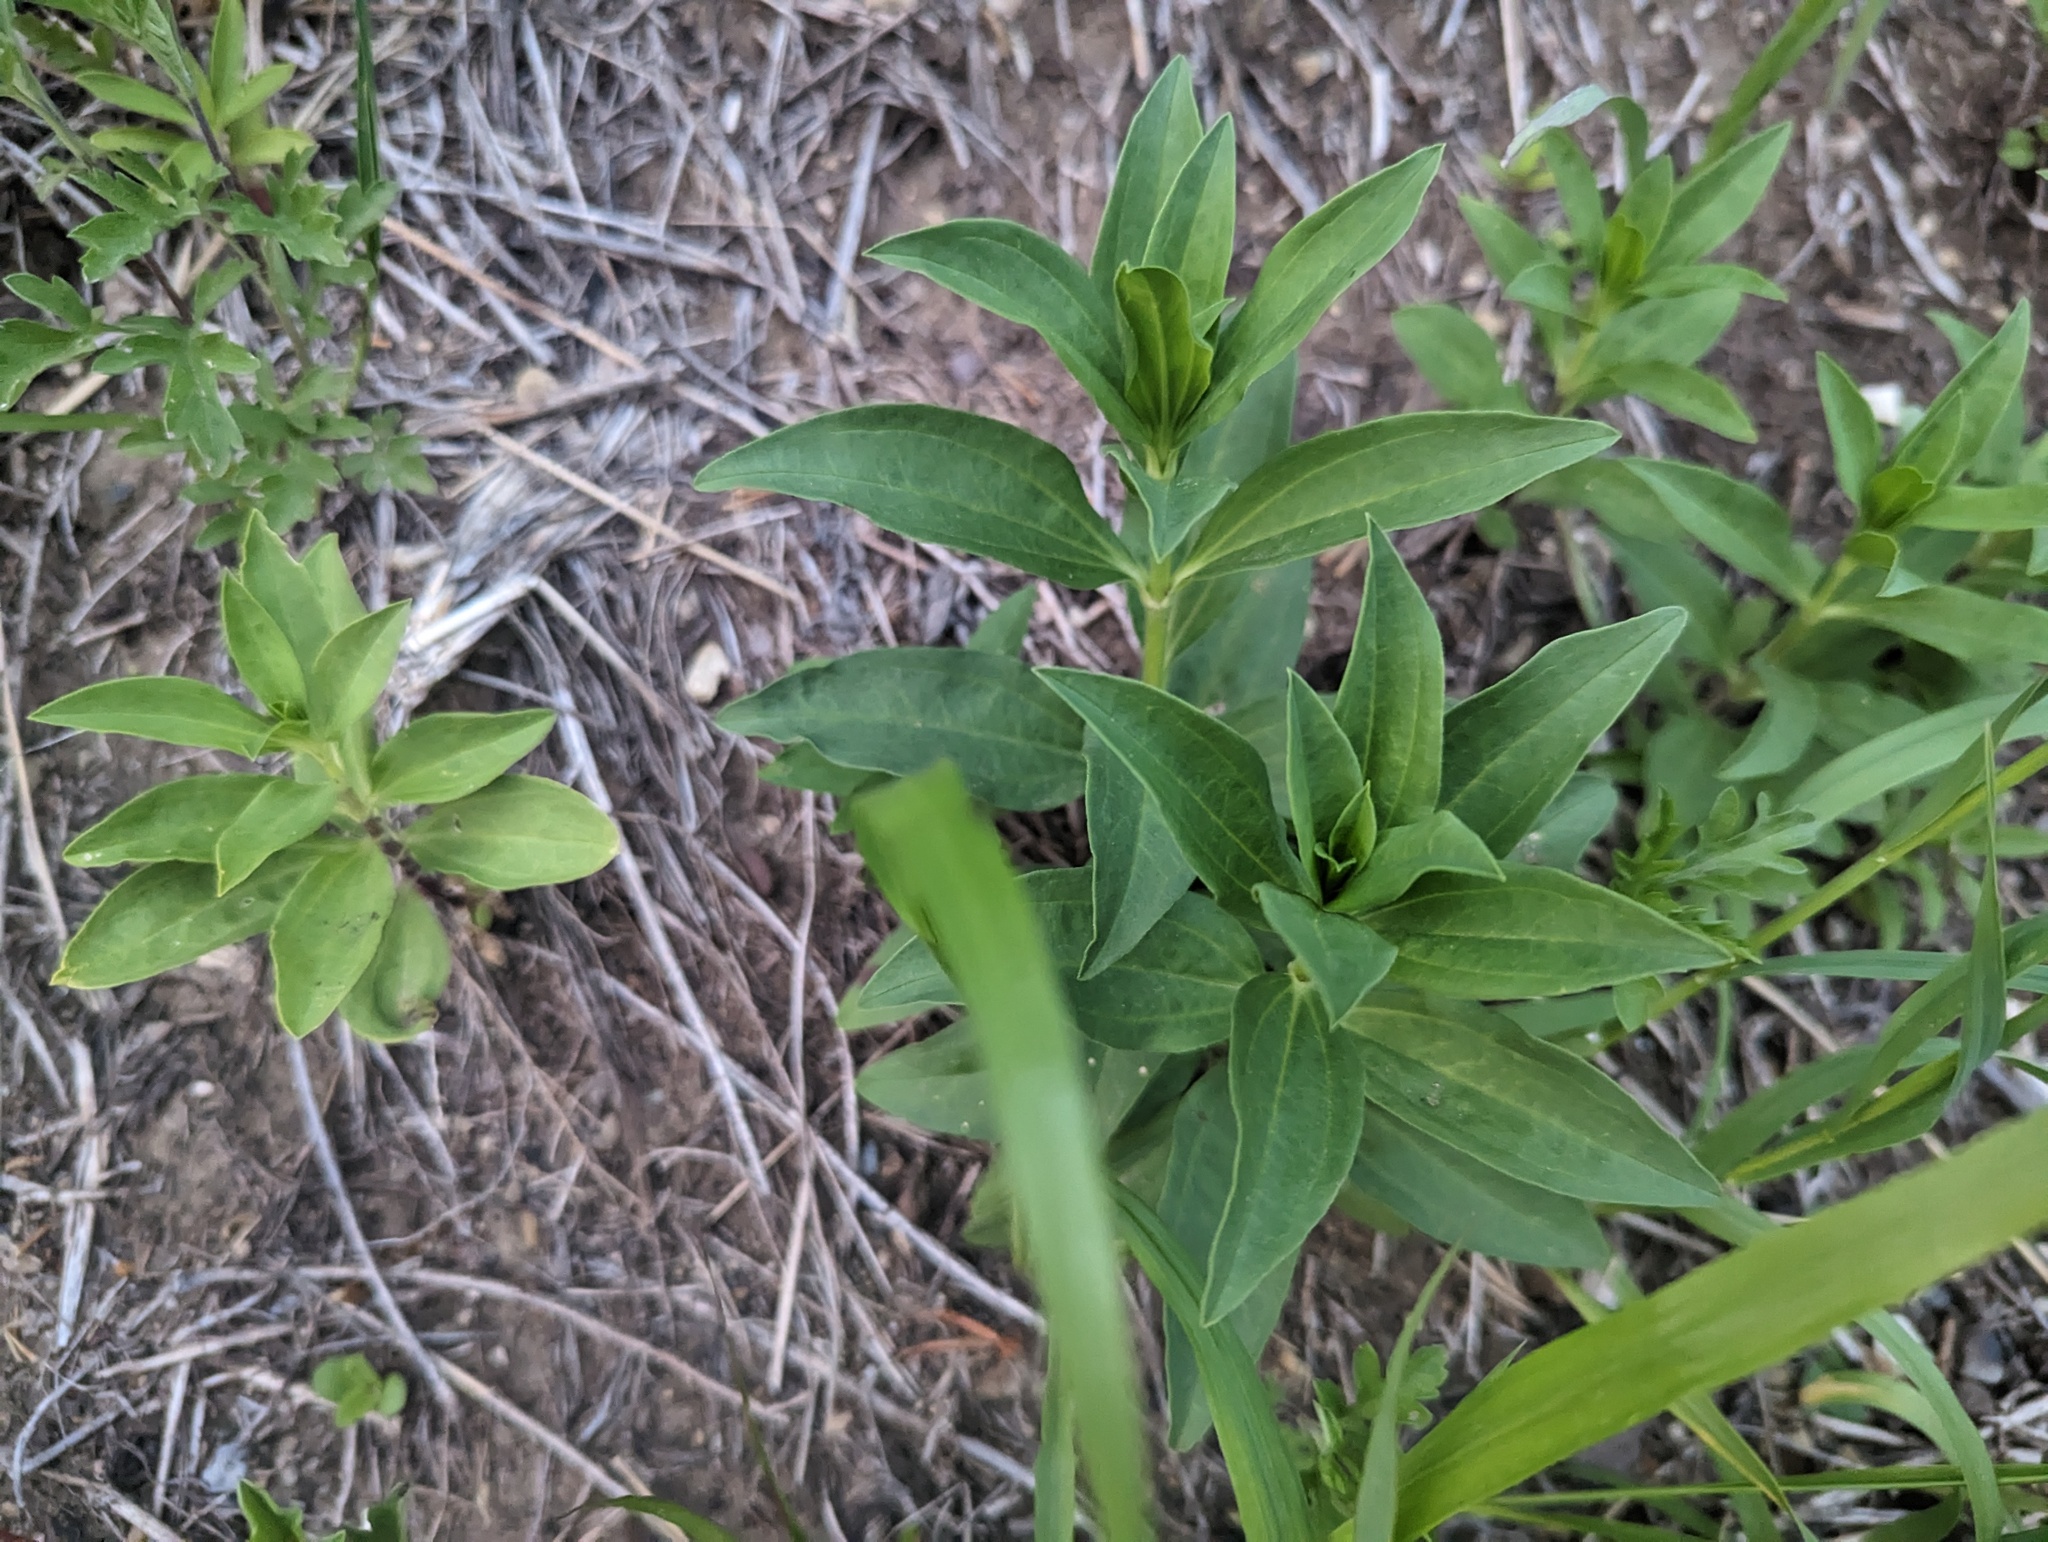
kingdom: Plantae
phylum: Tracheophyta
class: Magnoliopsida
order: Caryophyllales
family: Caryophyllaceae
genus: Saponaria
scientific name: Saponaria officinalis
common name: Soapwort
